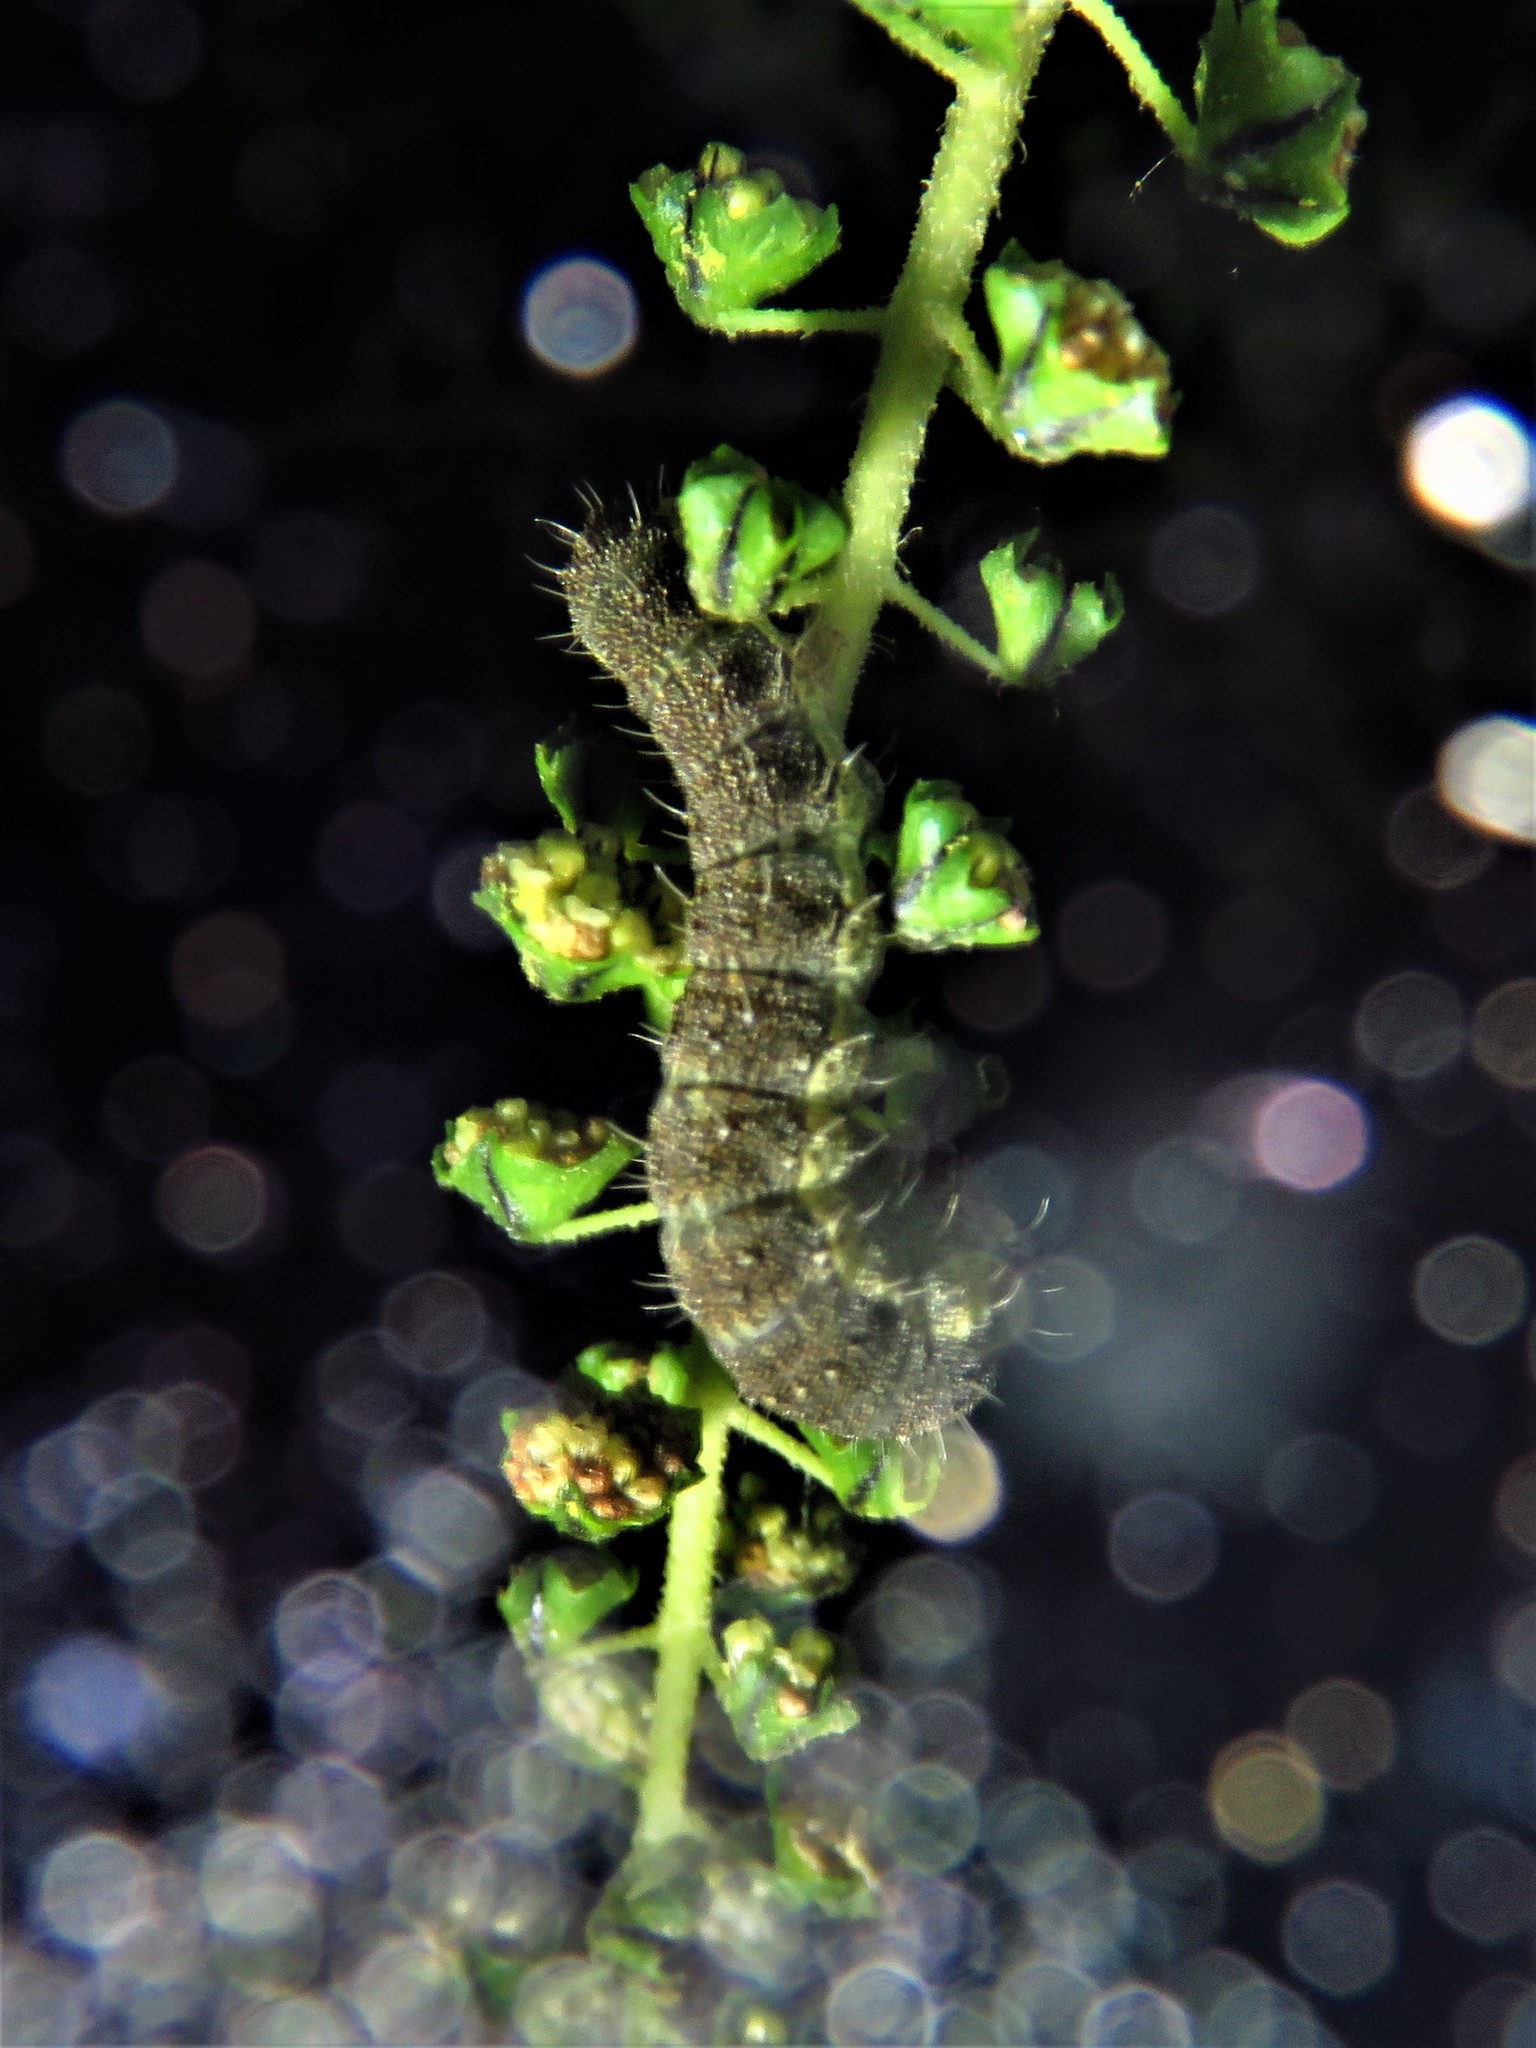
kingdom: Animalia
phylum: Arthropoda
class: Insecta
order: Lepidoptera
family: Noctuidae
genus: Schinia
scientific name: Schinia rivulosa
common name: Scarce meal-moth
